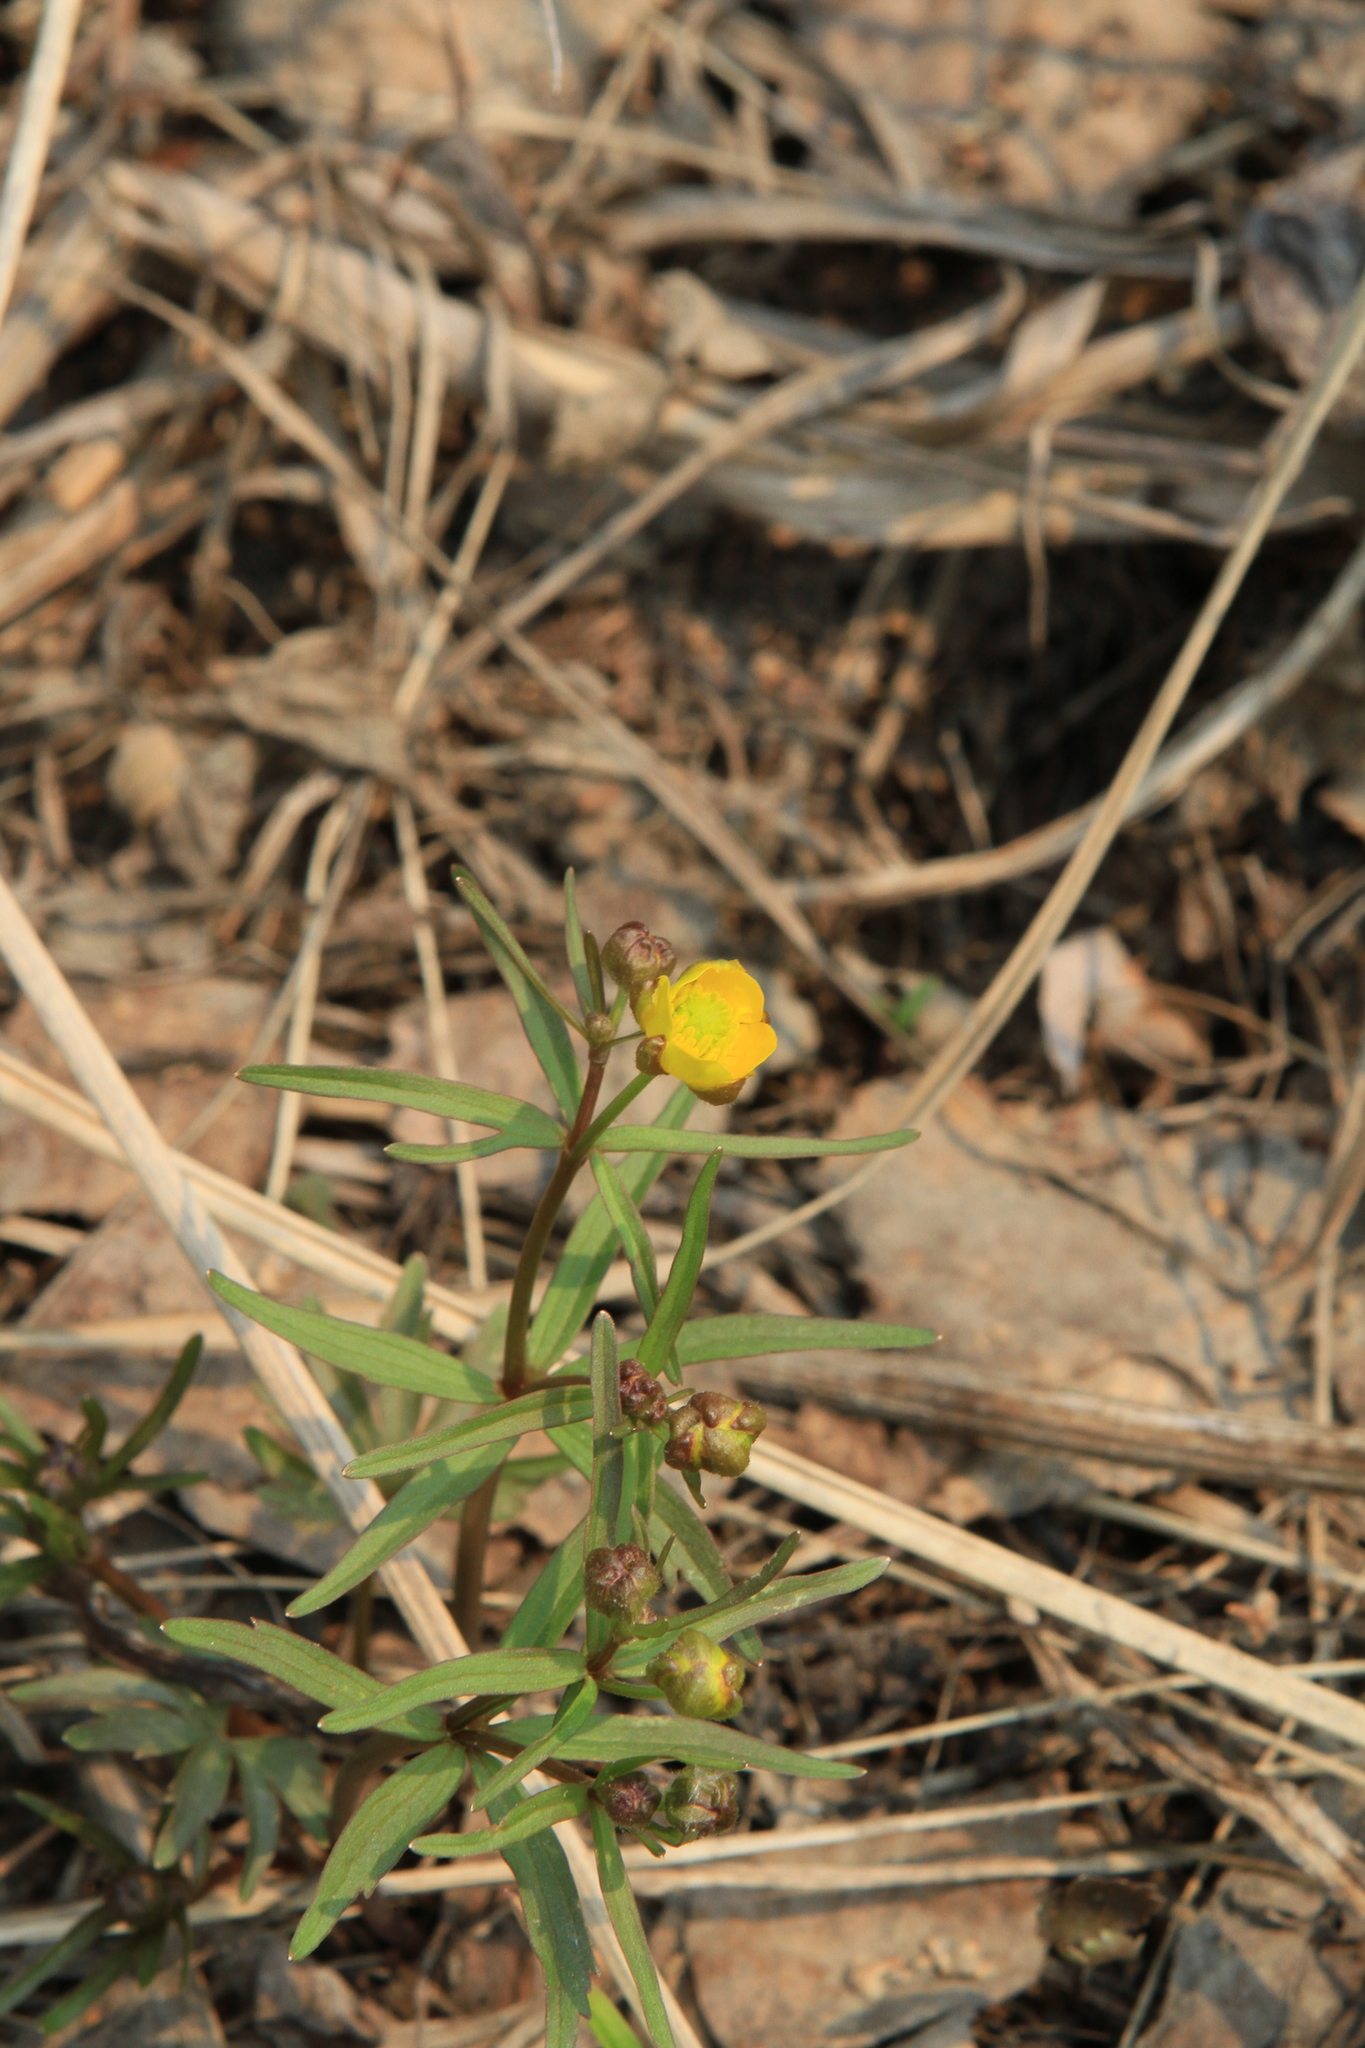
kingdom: Plantae
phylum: Tracheophyta
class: Magnoliopsida
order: Ranunculales
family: Ranunculaceae
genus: Ranunculus
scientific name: Ranunculus monophyllus
